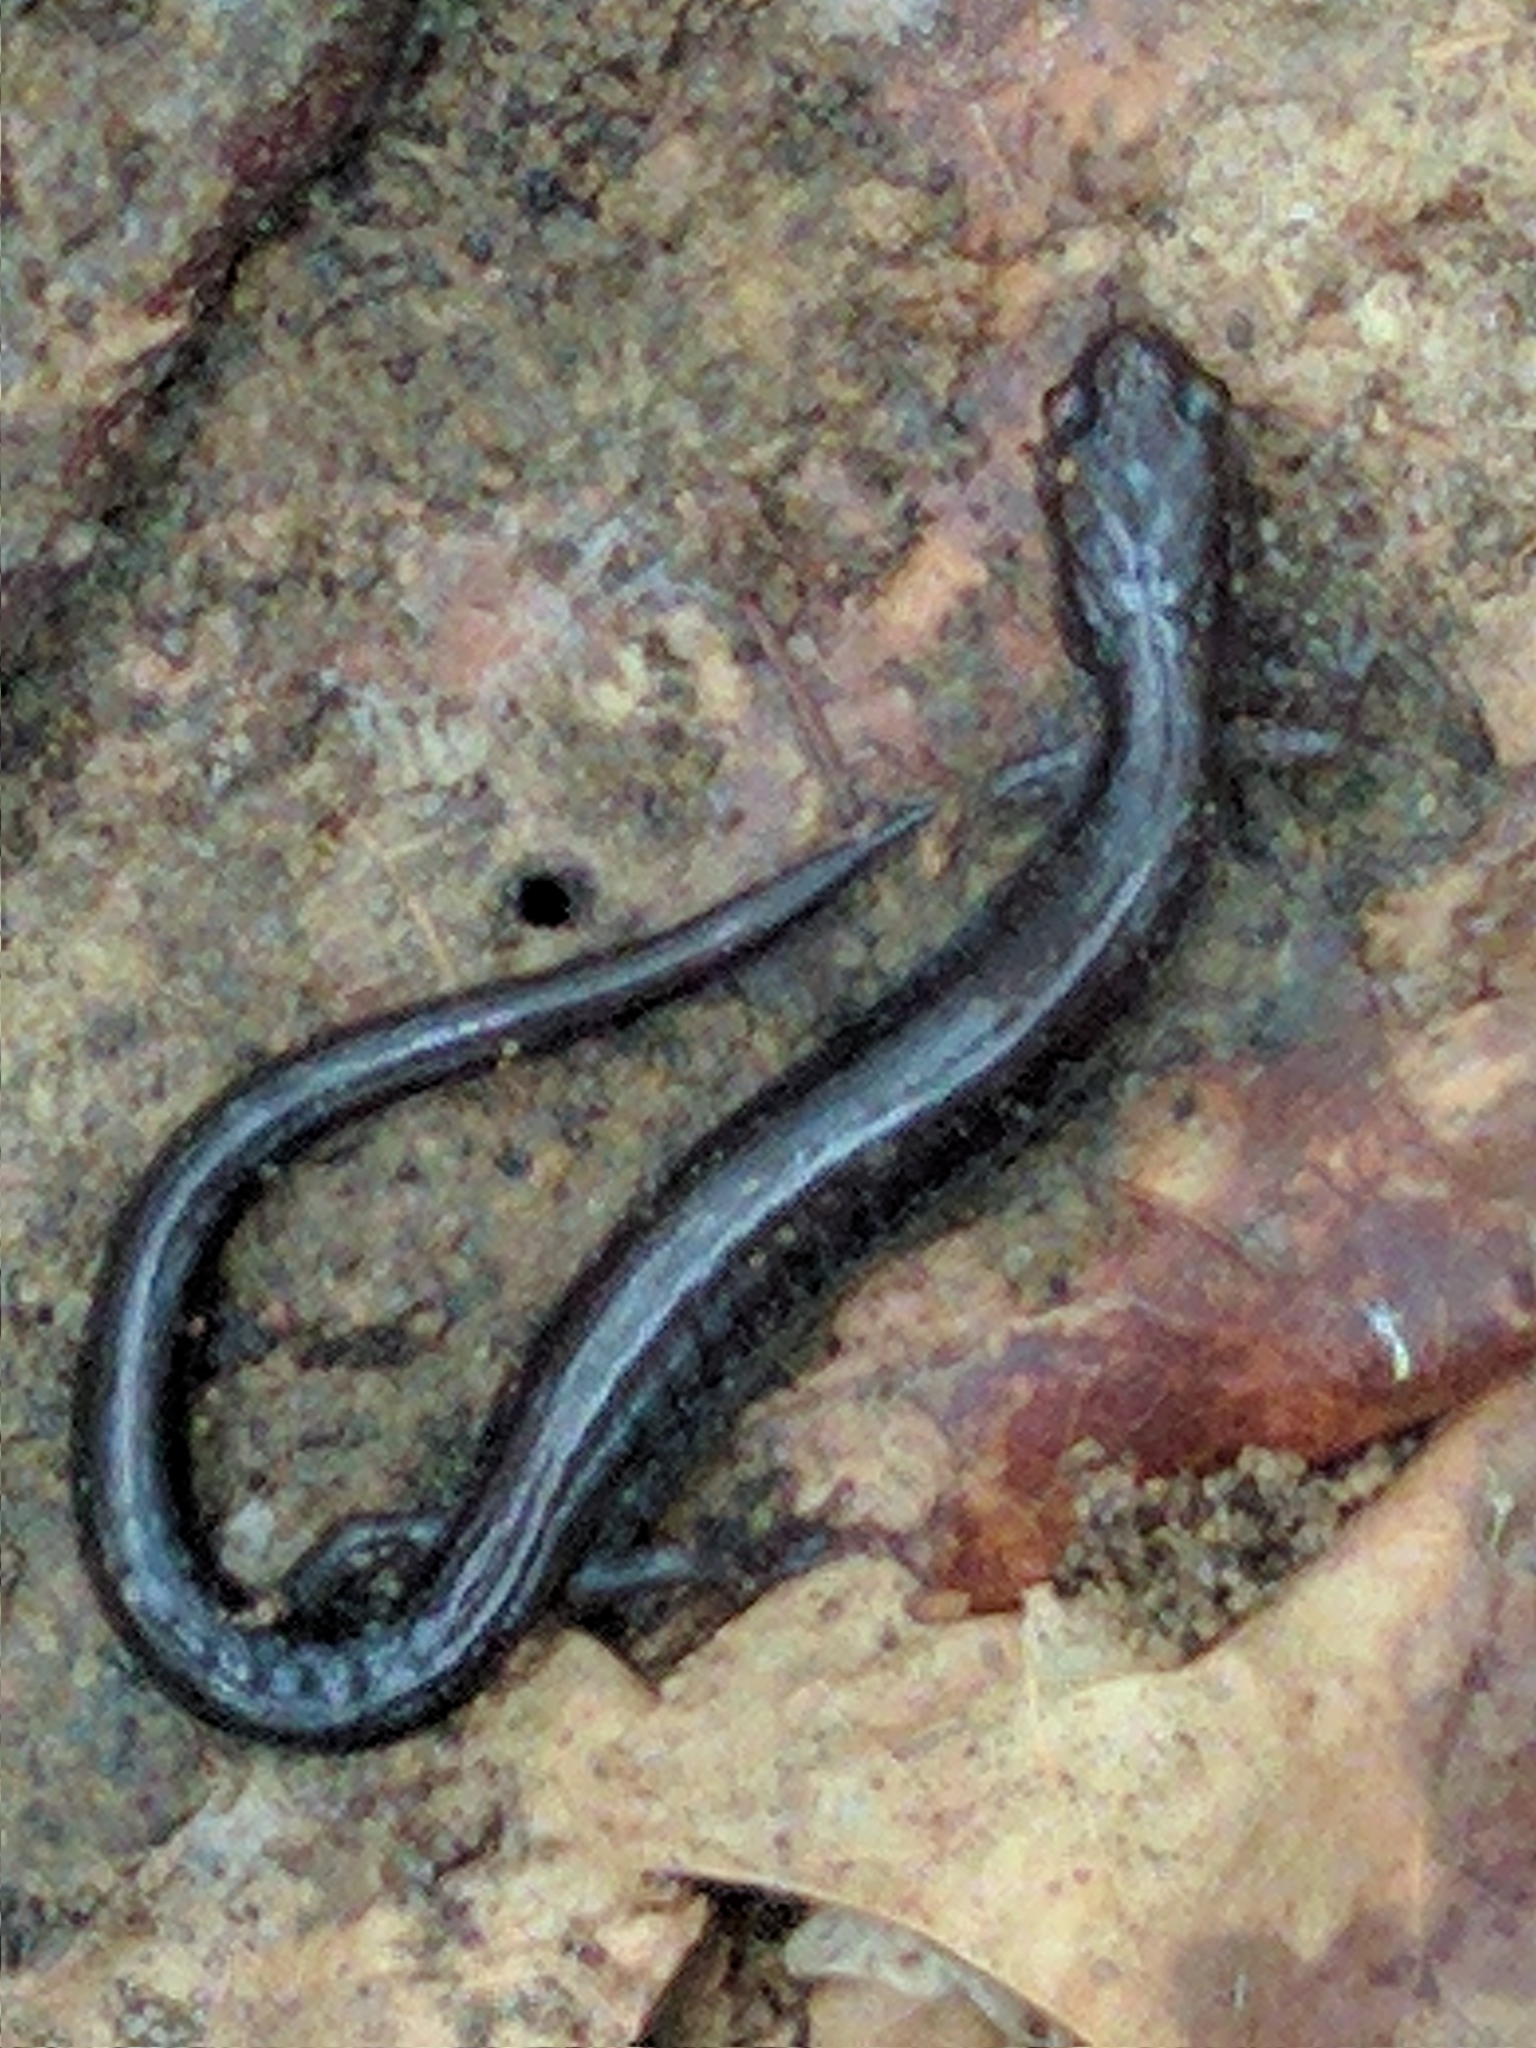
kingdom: Animalia
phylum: Chordata
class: Amphibia
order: Caudata
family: Plethodontidae
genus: Plethodon
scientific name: Plethodon cinereus
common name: Redback salamander
